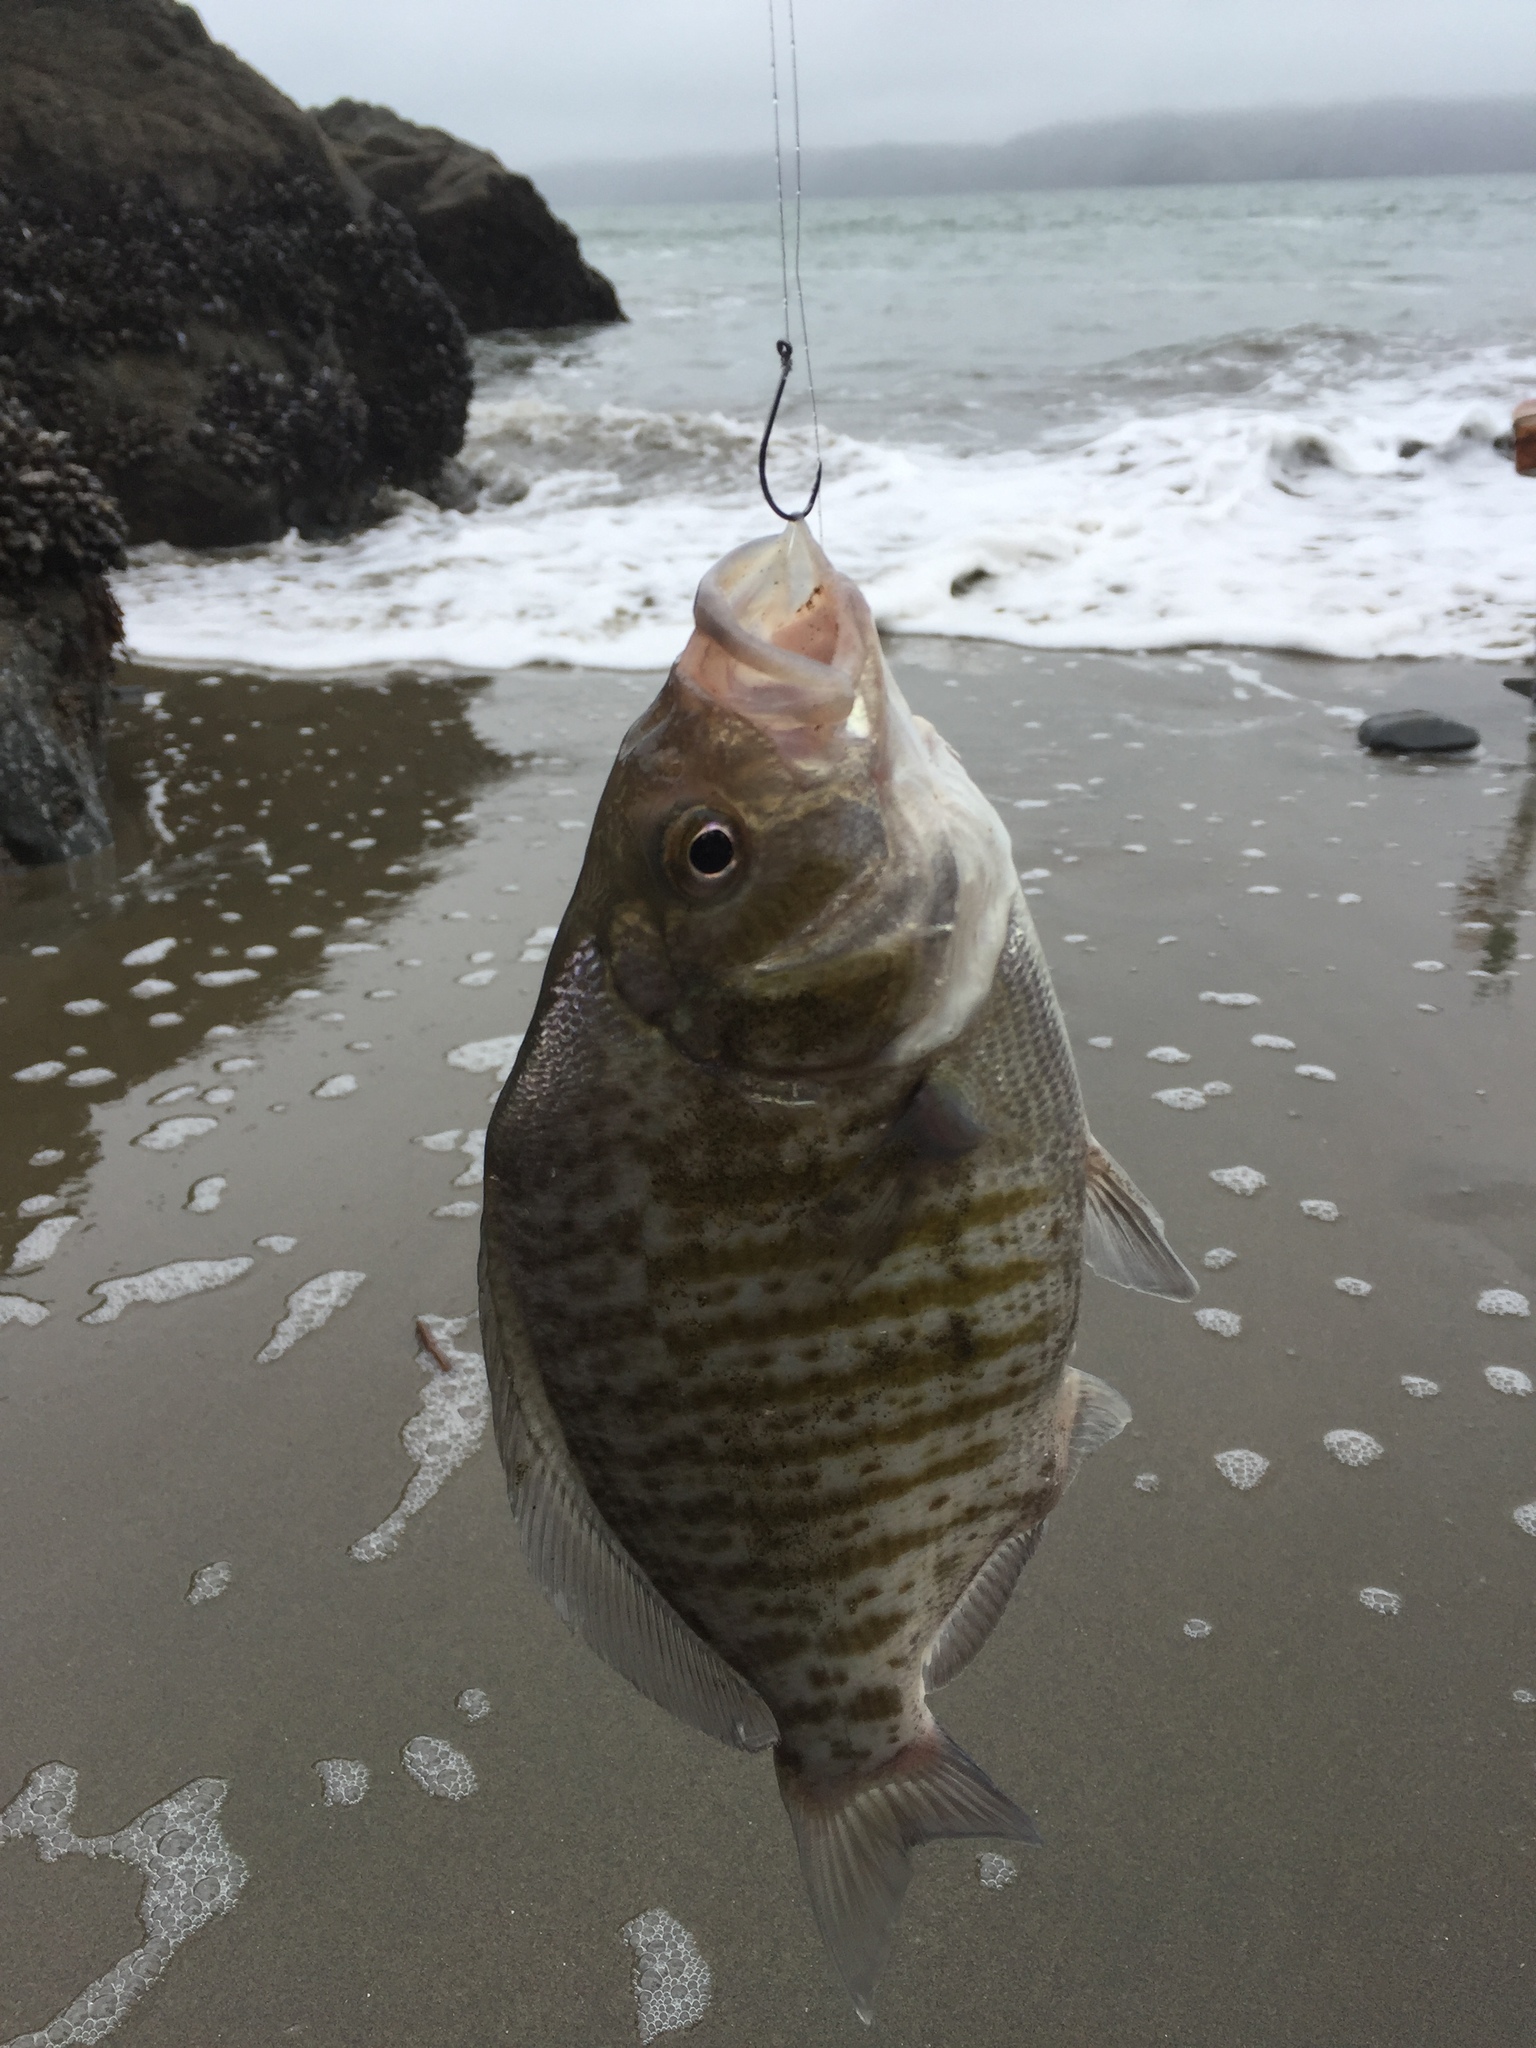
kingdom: Animalia
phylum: Chordata
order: Perciformes
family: Embiotocidae
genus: Amphistichus
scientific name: Amphistichus argenteus
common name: Barred surfperch
